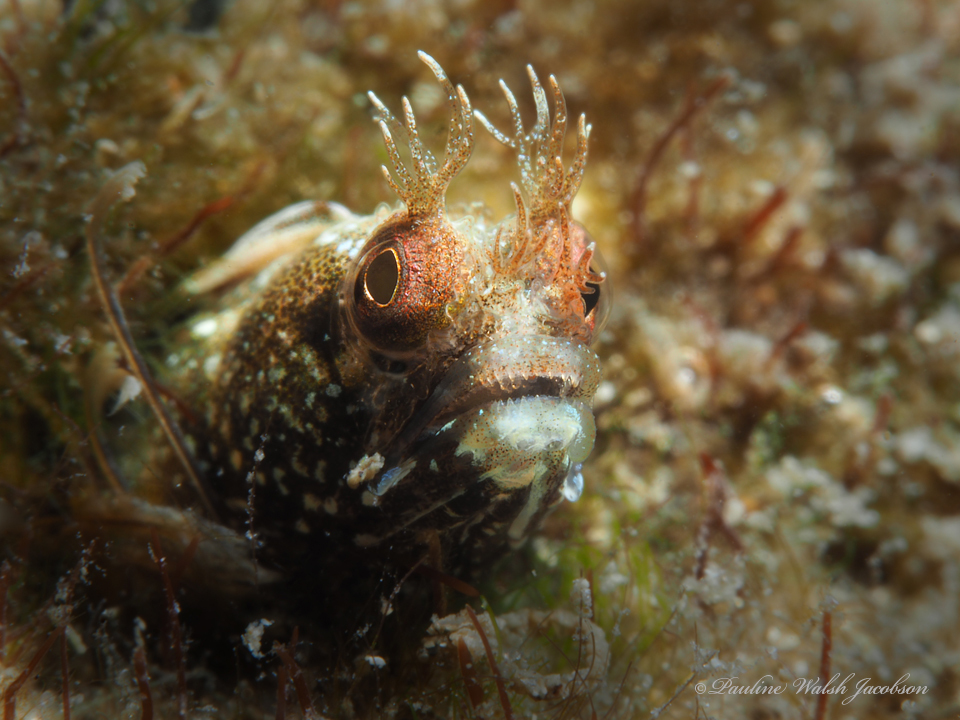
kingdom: Animalia
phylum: Chordata
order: Perciformes
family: Chaenopsidae
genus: Acanthemblemaria
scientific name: Acanthemblemaria aspera
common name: Roughhead blenny
